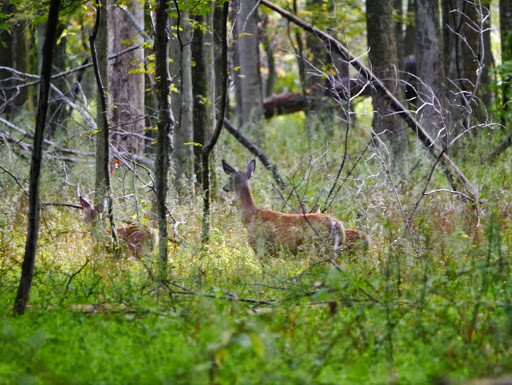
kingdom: Animalia
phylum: Chordata
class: Mammalia
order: Artiodactyla
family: Cervidae
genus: Odocoileus
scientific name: Odocoileus virginianus
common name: White-tailed deer
